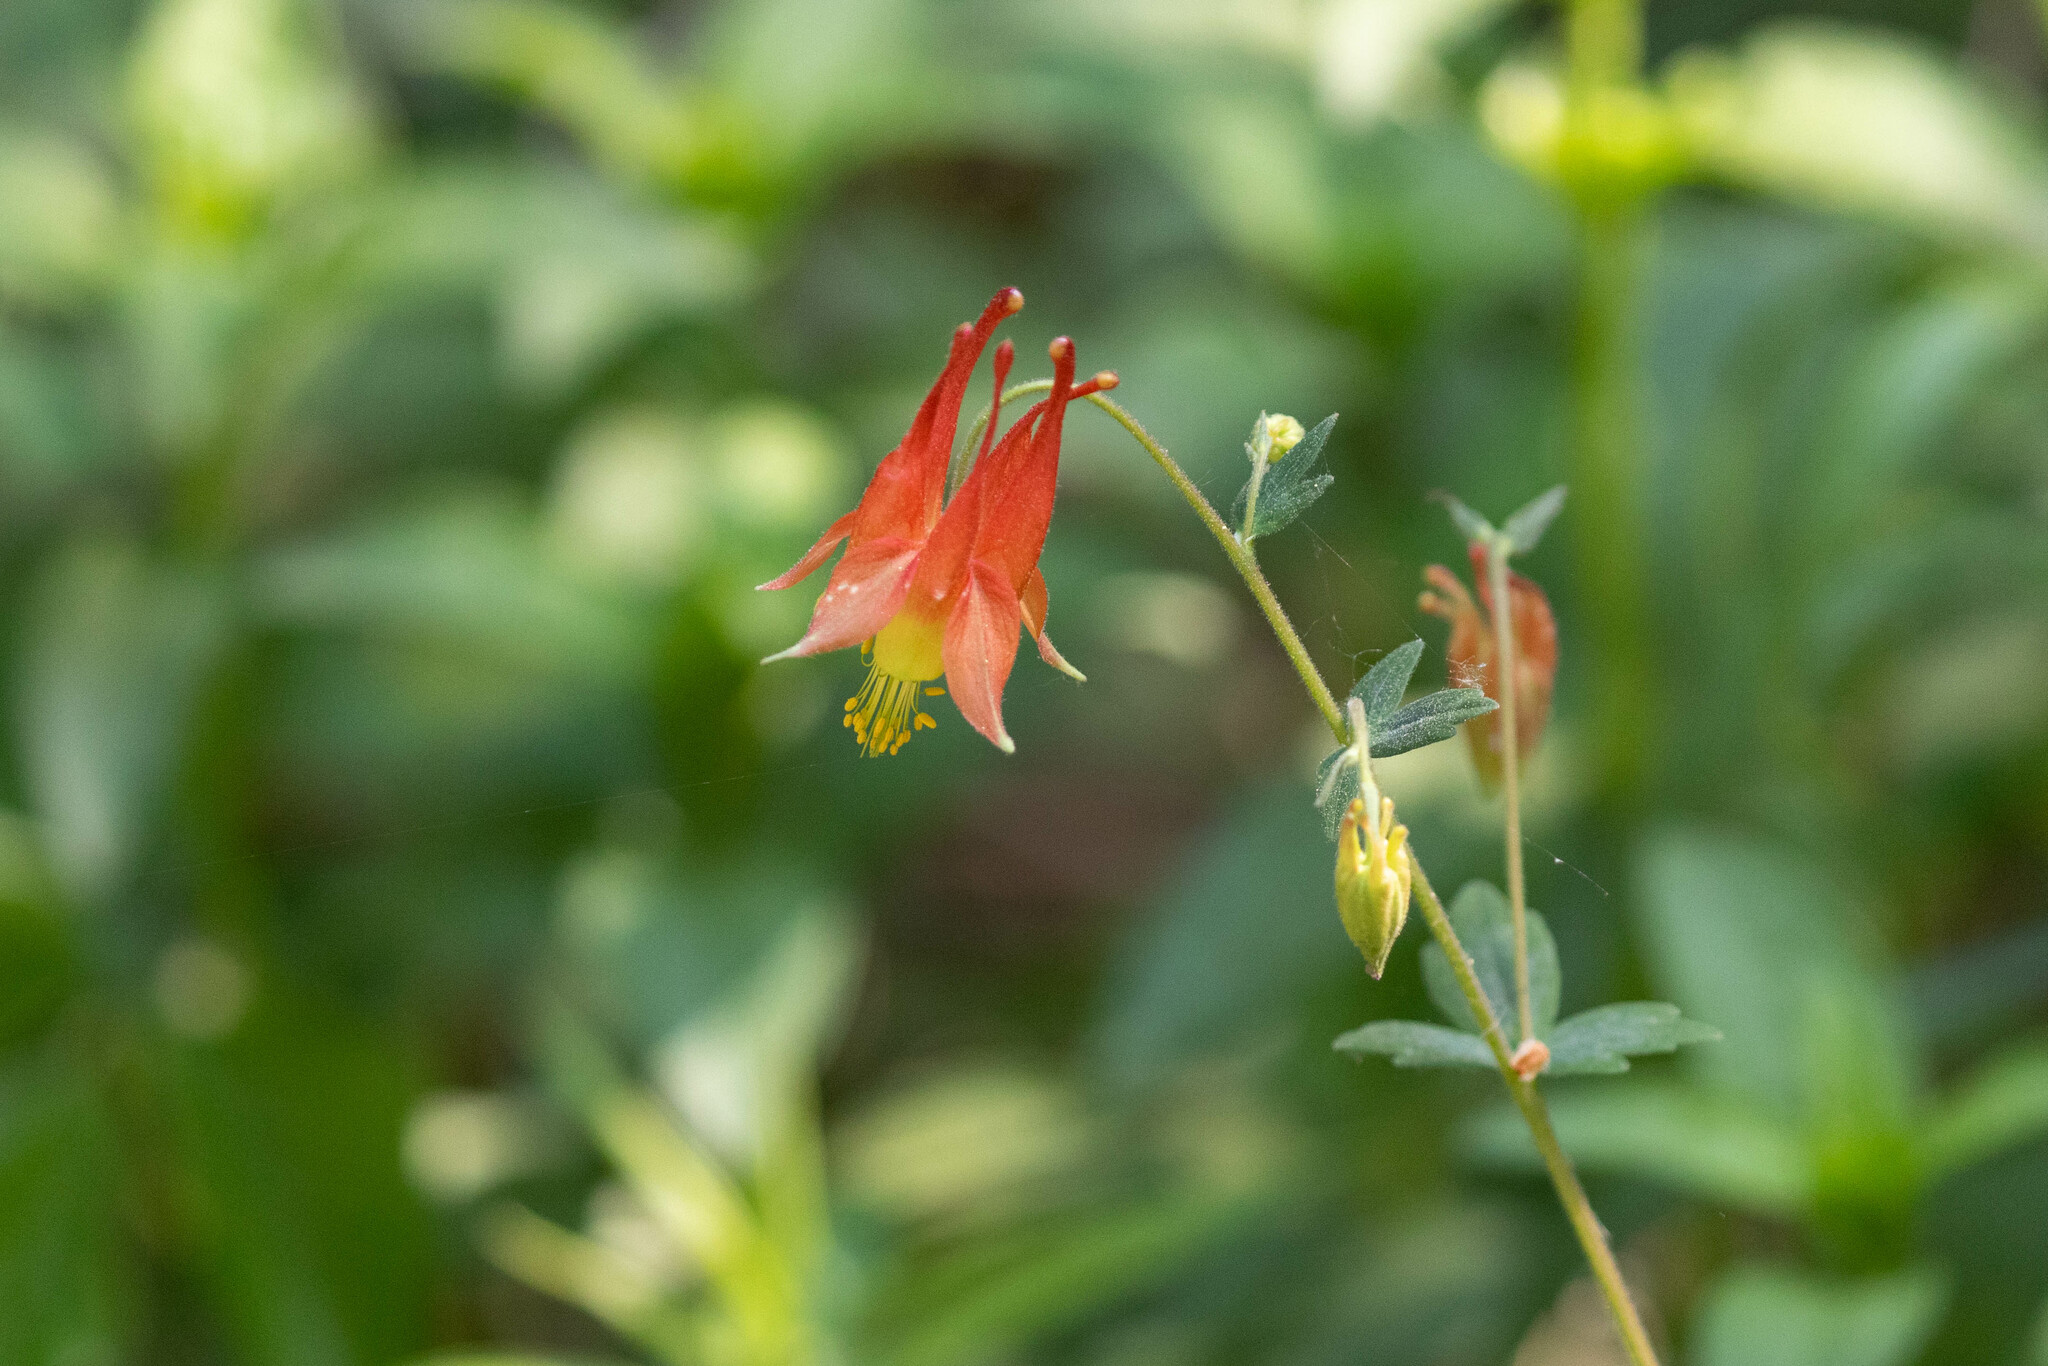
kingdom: Plantae
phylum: Tracheophyta
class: Magnoliopsida
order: Ranunculales
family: Ranunculaceae
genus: Aquilegia
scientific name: Aquilegia canadensis
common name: American columbine
